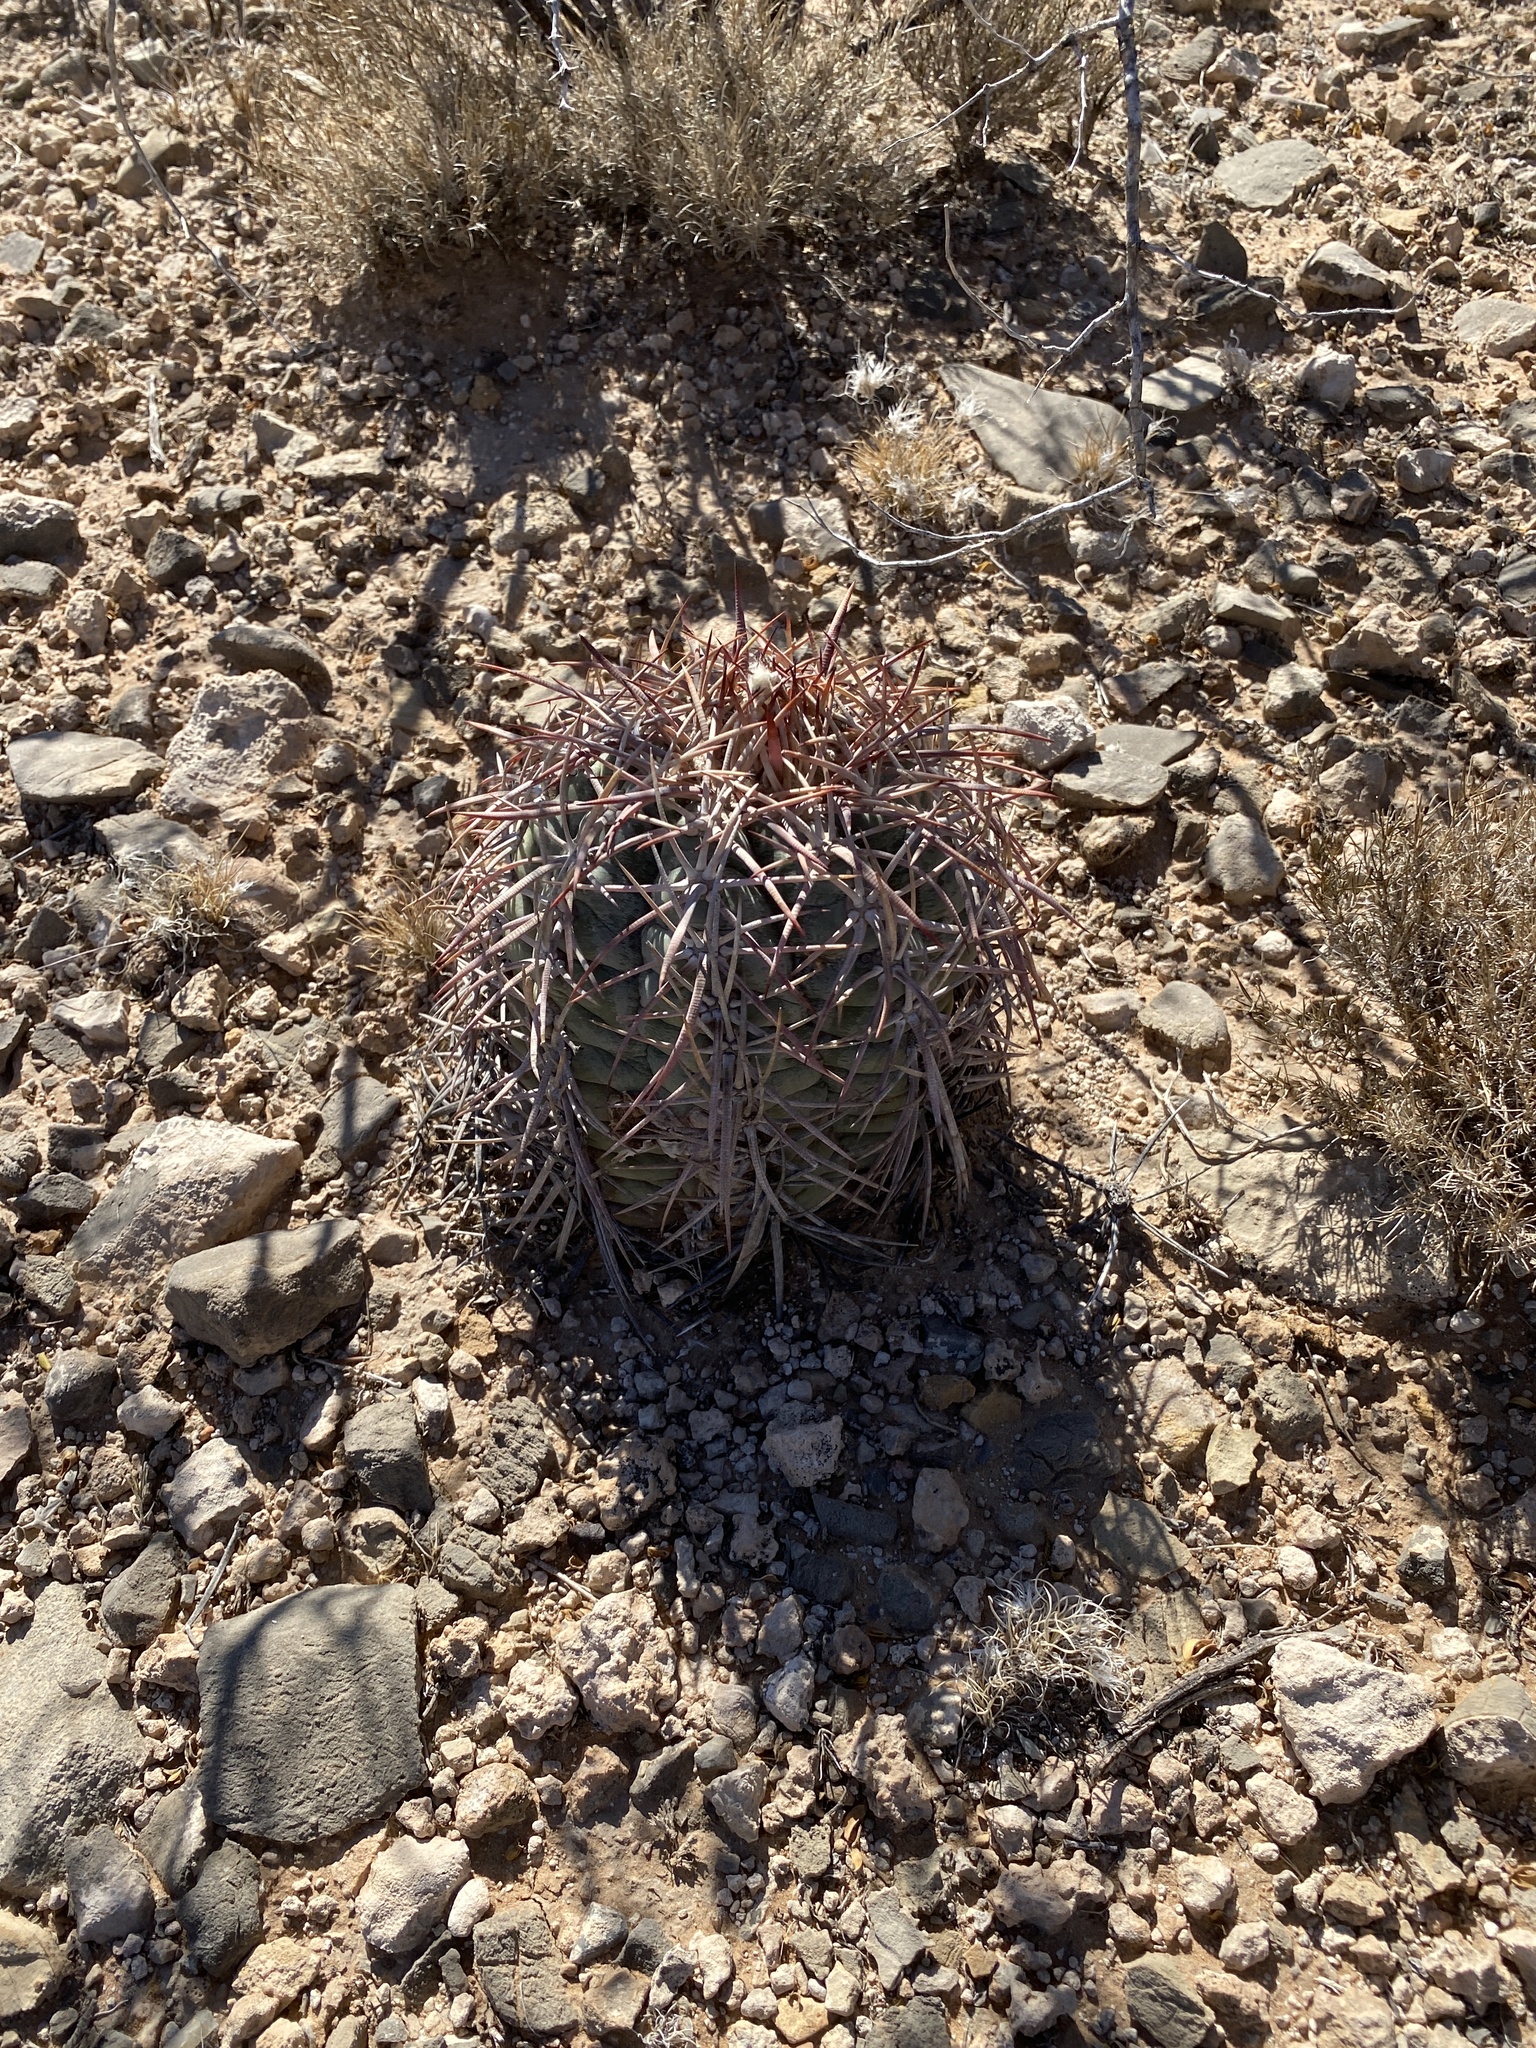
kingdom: Plantae
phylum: Tracheophyta
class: Magnoliopsida
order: Caryophyllales
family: Cactaceae
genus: Echinocactus
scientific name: Echinocactus horizonthalonius
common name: Devilshead
